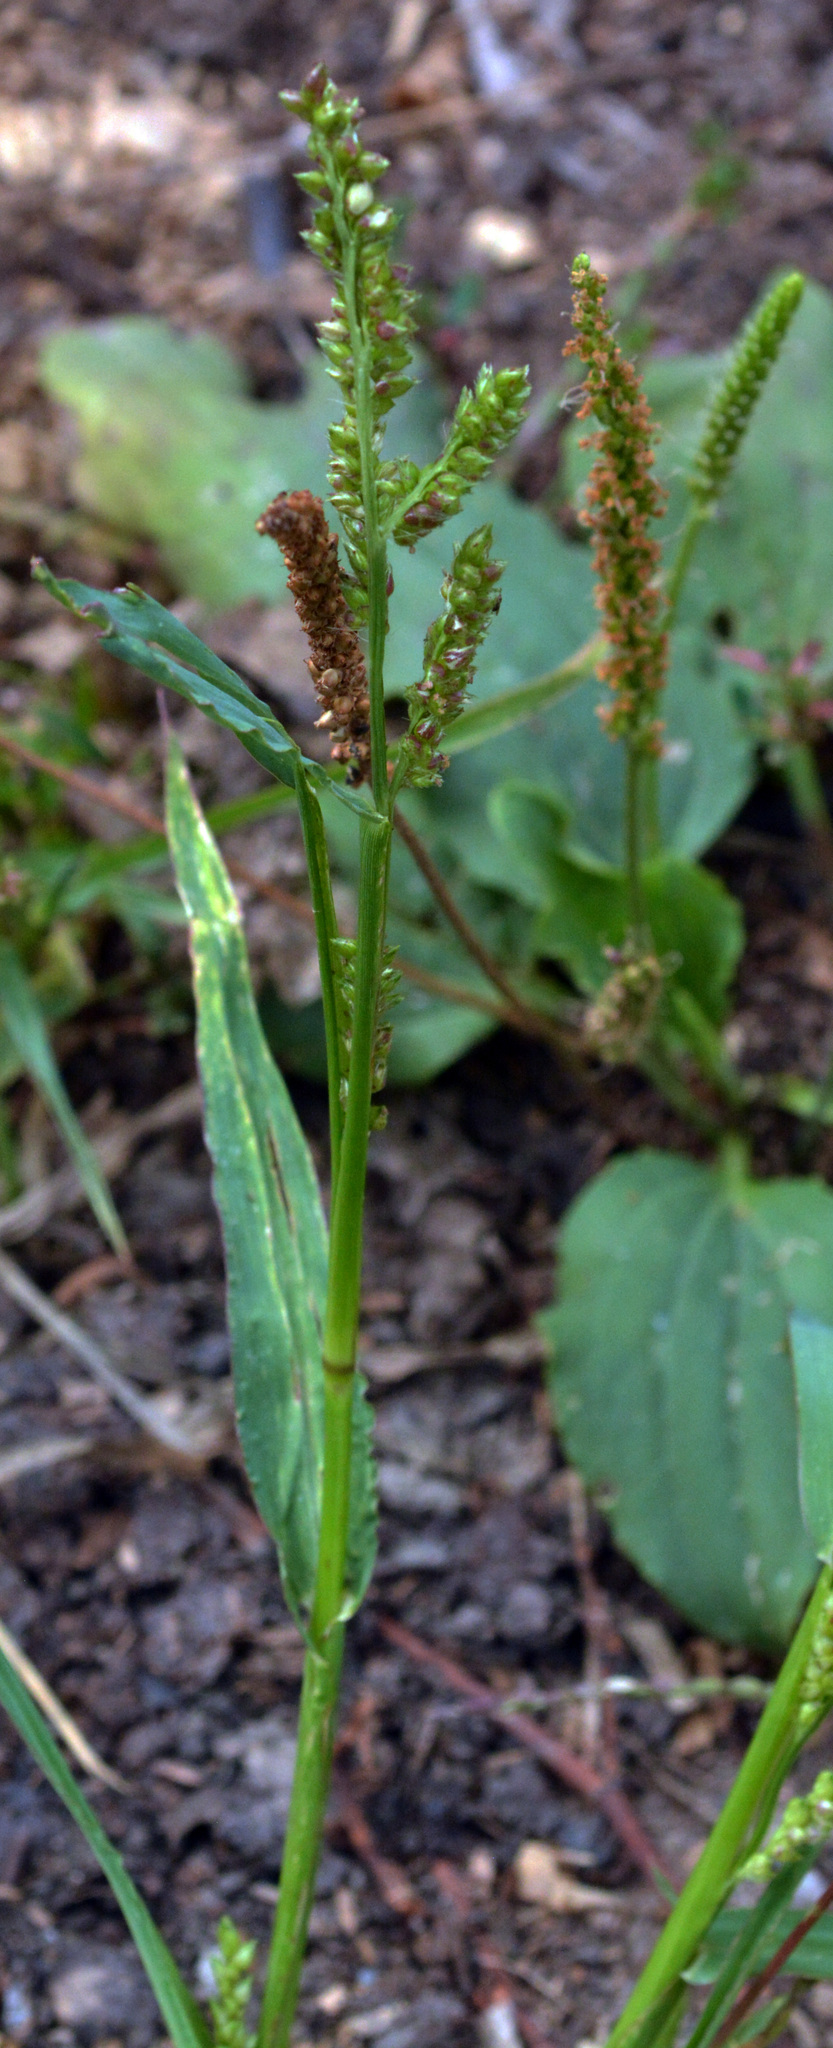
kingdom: Plantae
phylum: Tracheophyta
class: Liliopsida
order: Poales
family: Poaceae
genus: Echinochloa
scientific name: Echinochloa crus-galli
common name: Cockspur
